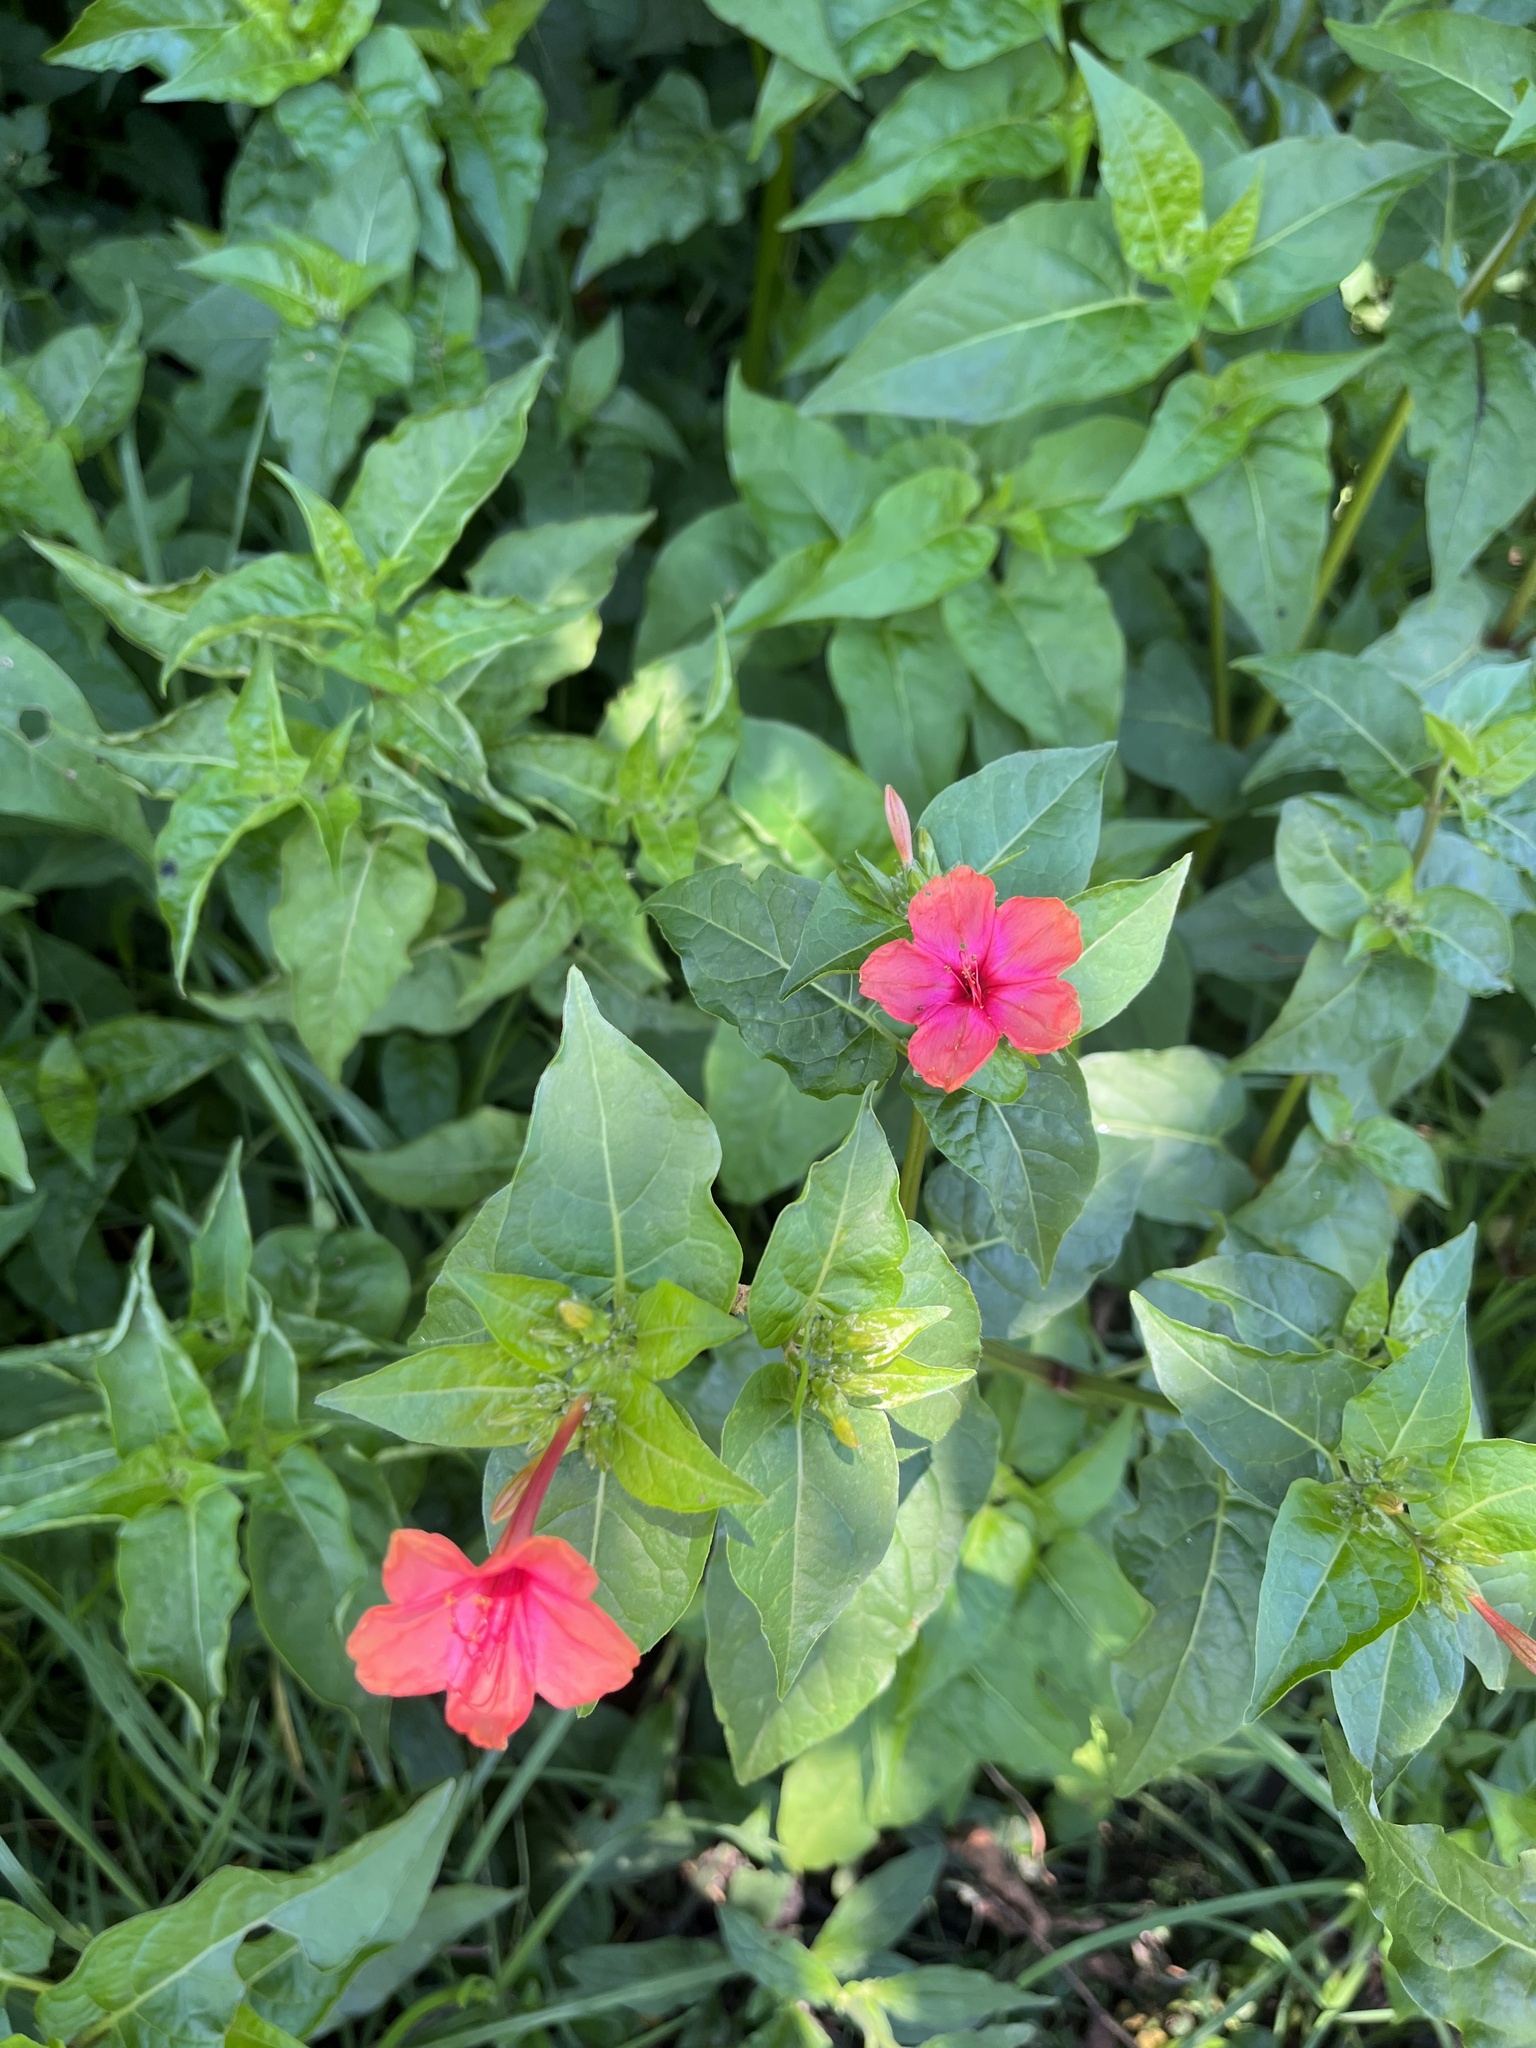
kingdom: Plantae
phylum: Tracheophyta
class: Magnoliopsida
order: Caryophyllales
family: Nyctaginaceae
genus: Mirabilis
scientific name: Mirabilis jalapa
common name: Marvel-of-peru
